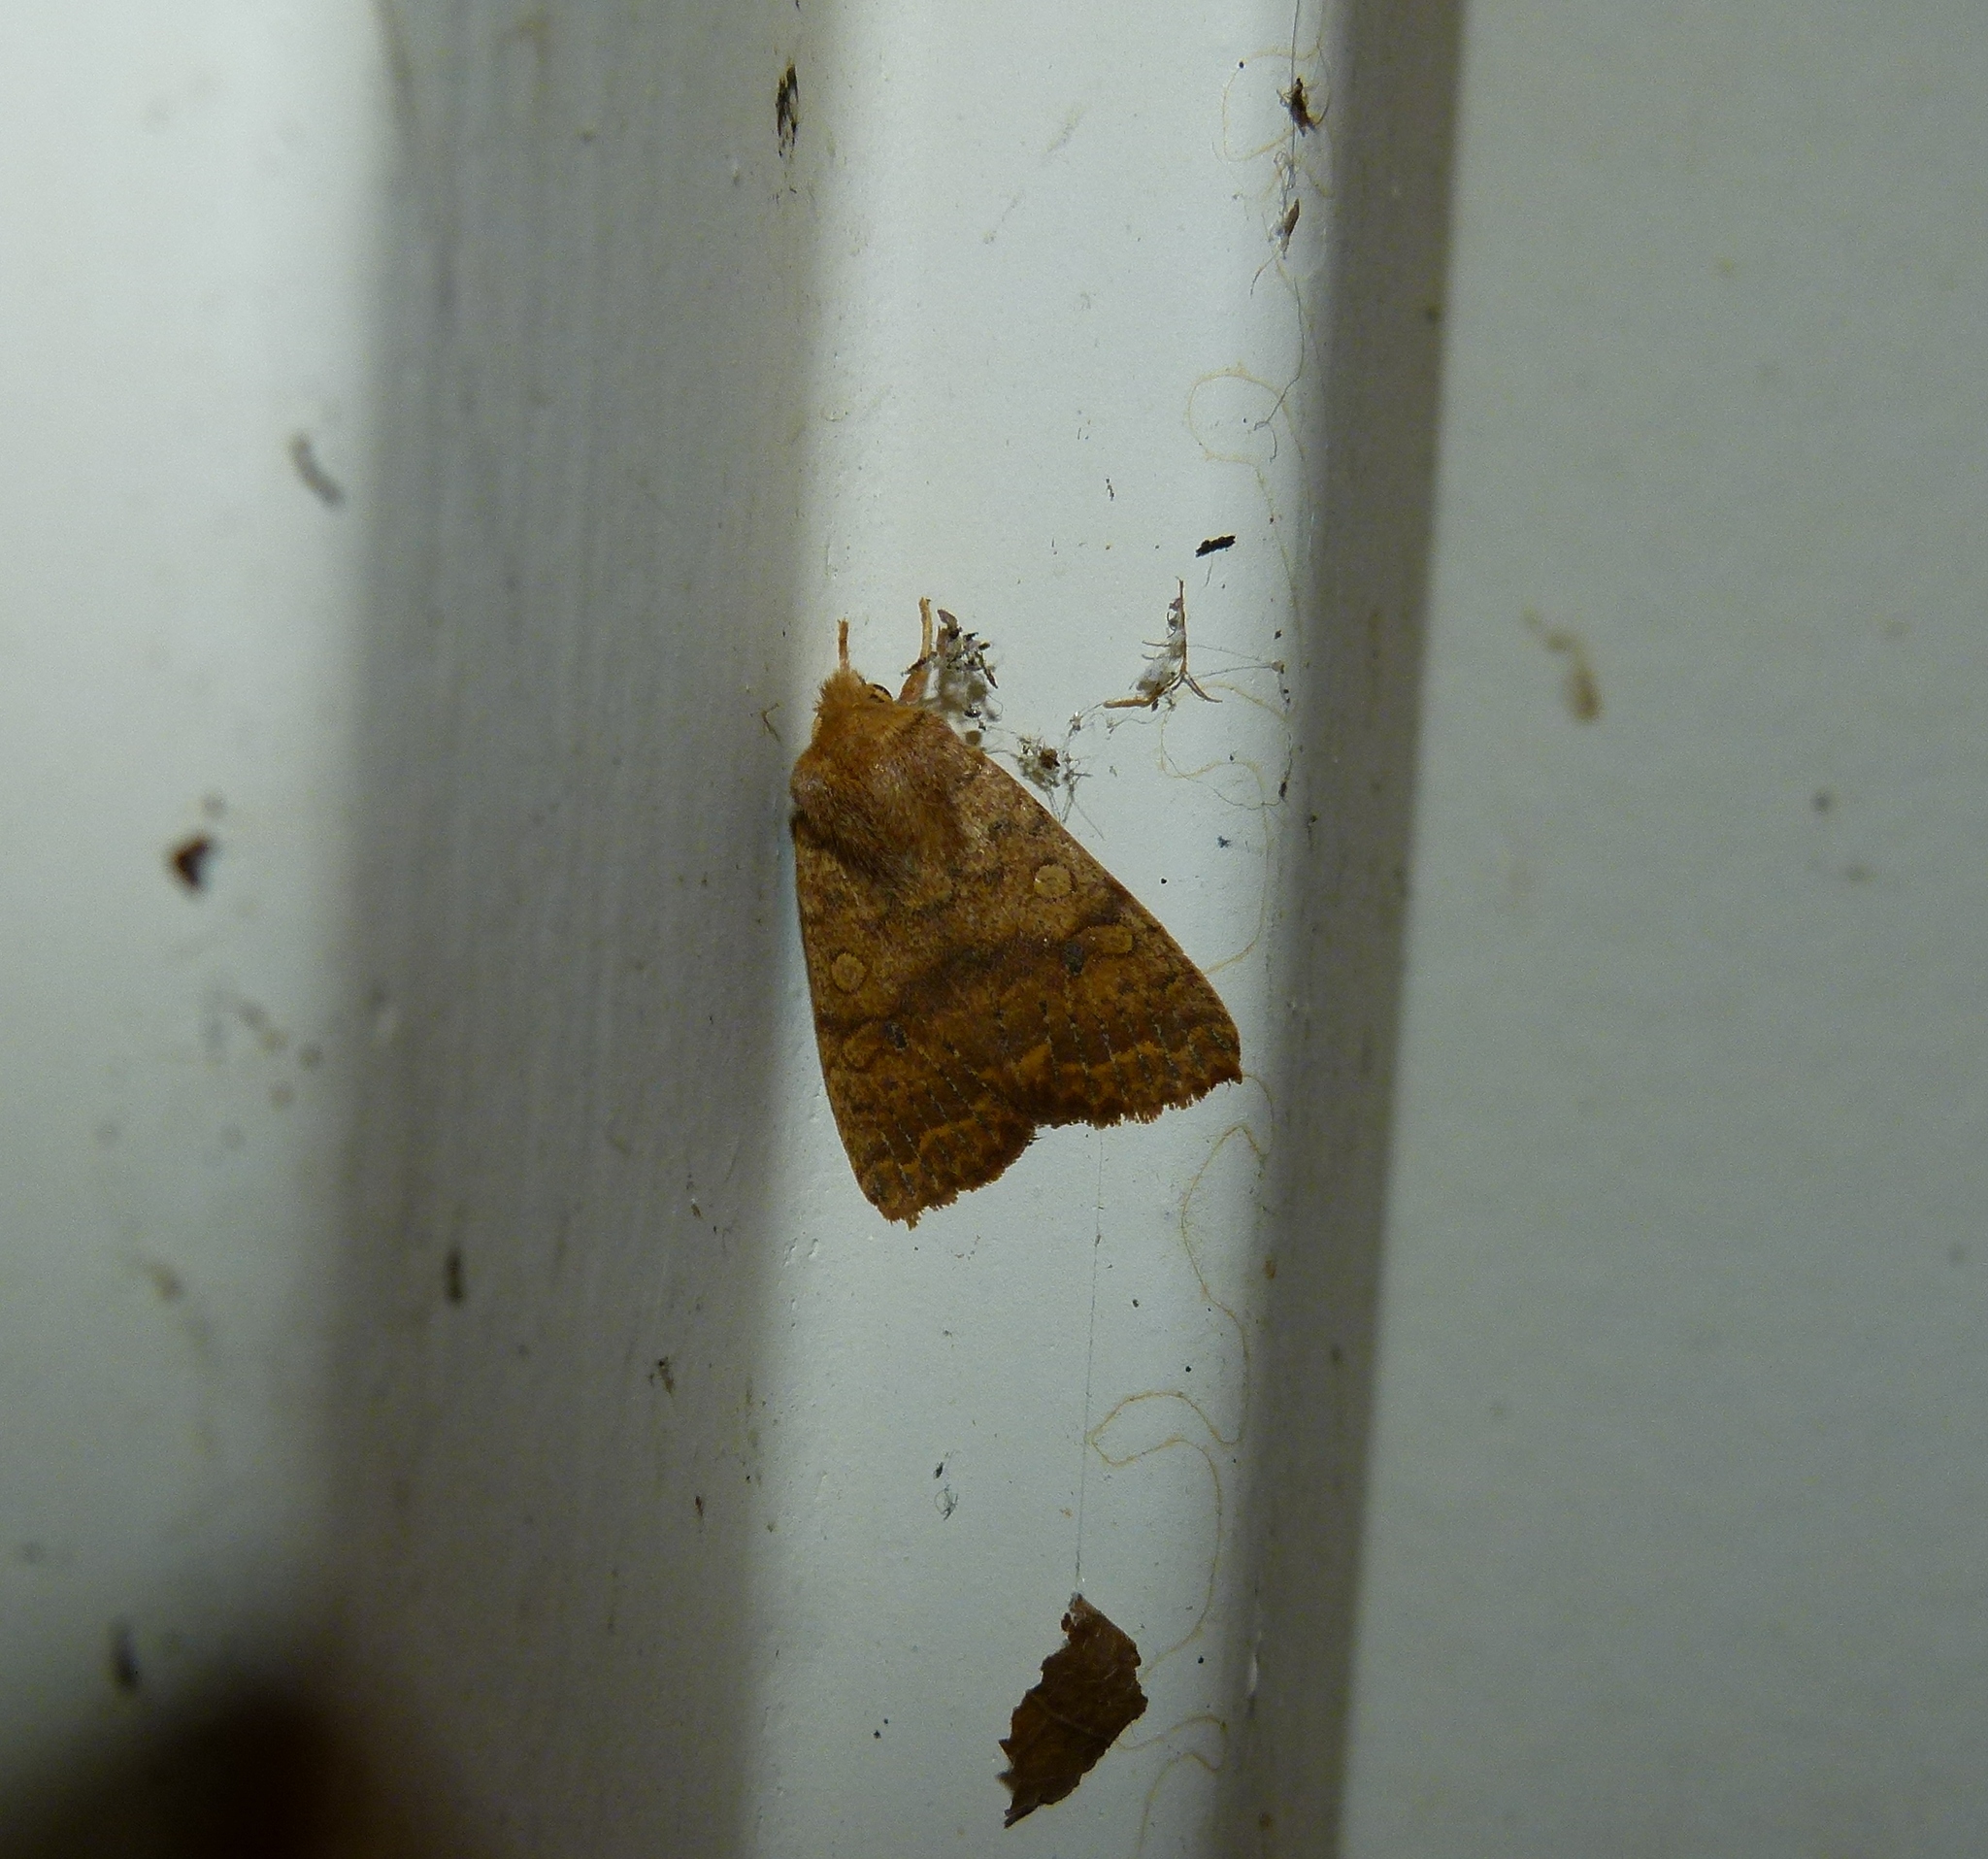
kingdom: Animalia
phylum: Arthropoda
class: Insecta
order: Lepidoptera
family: Noctuidae
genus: Agrochola
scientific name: Agrochola bicolorago
